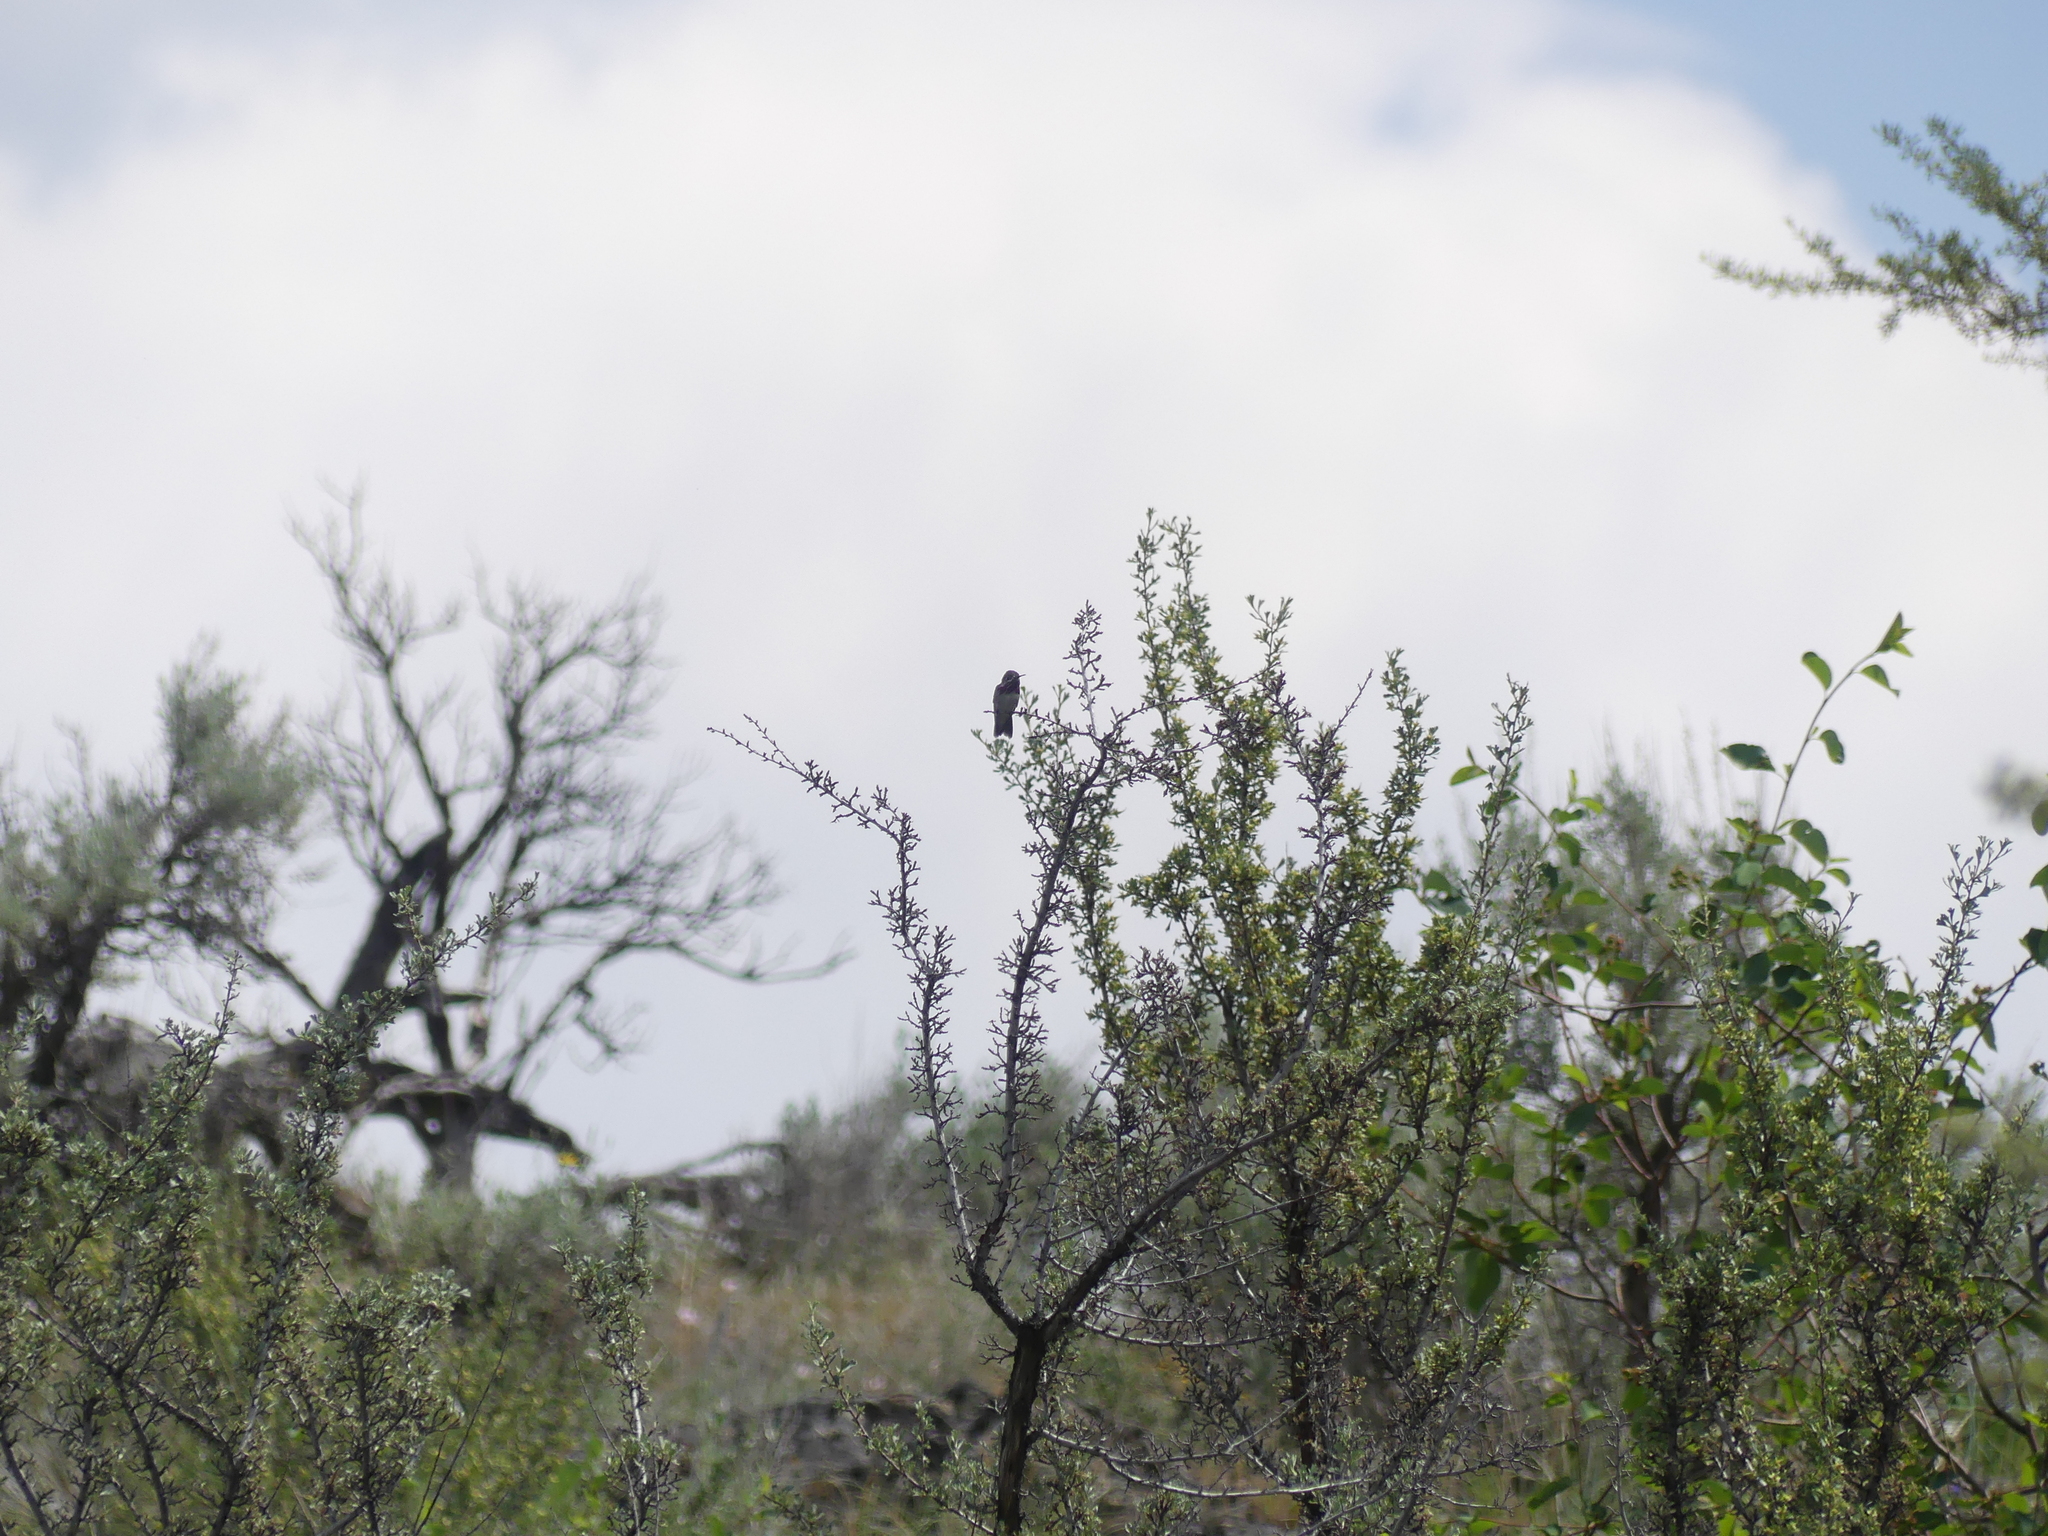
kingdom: Animalia
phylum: Chordata
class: Aves
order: Apodiformes
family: Trochilidae
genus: Selasphorus
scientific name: Selasphorus calliope
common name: Calliope hummingbird
